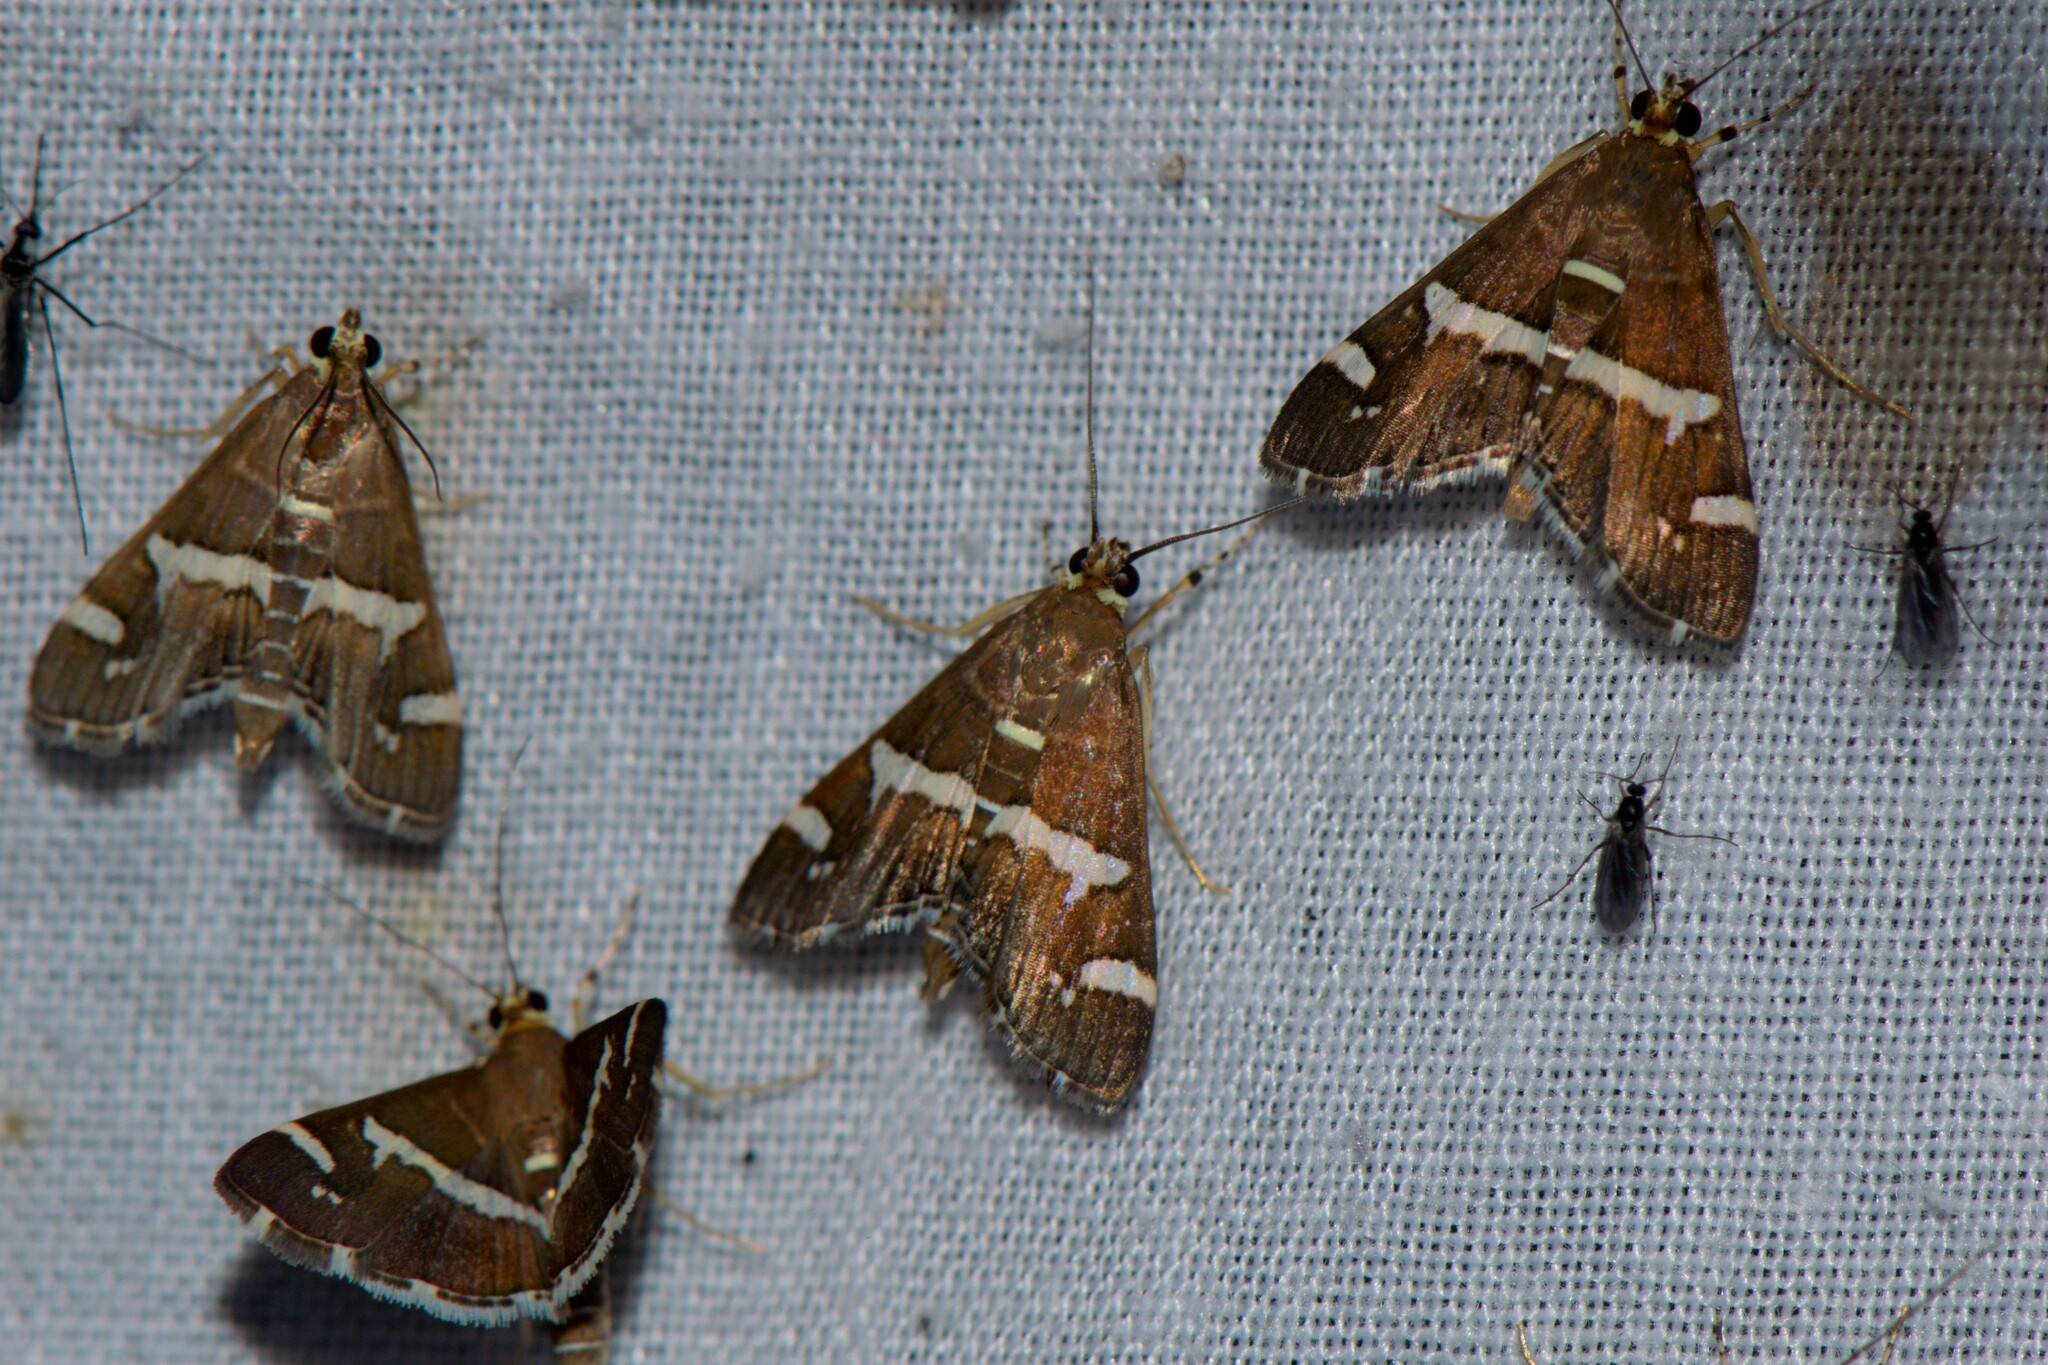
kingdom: Animalia
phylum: Arthropoda
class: Insecta
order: Lepidoptera
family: Crambidae
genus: Spoladea
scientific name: Spoladea recurvalis
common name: Beet webworm moth
